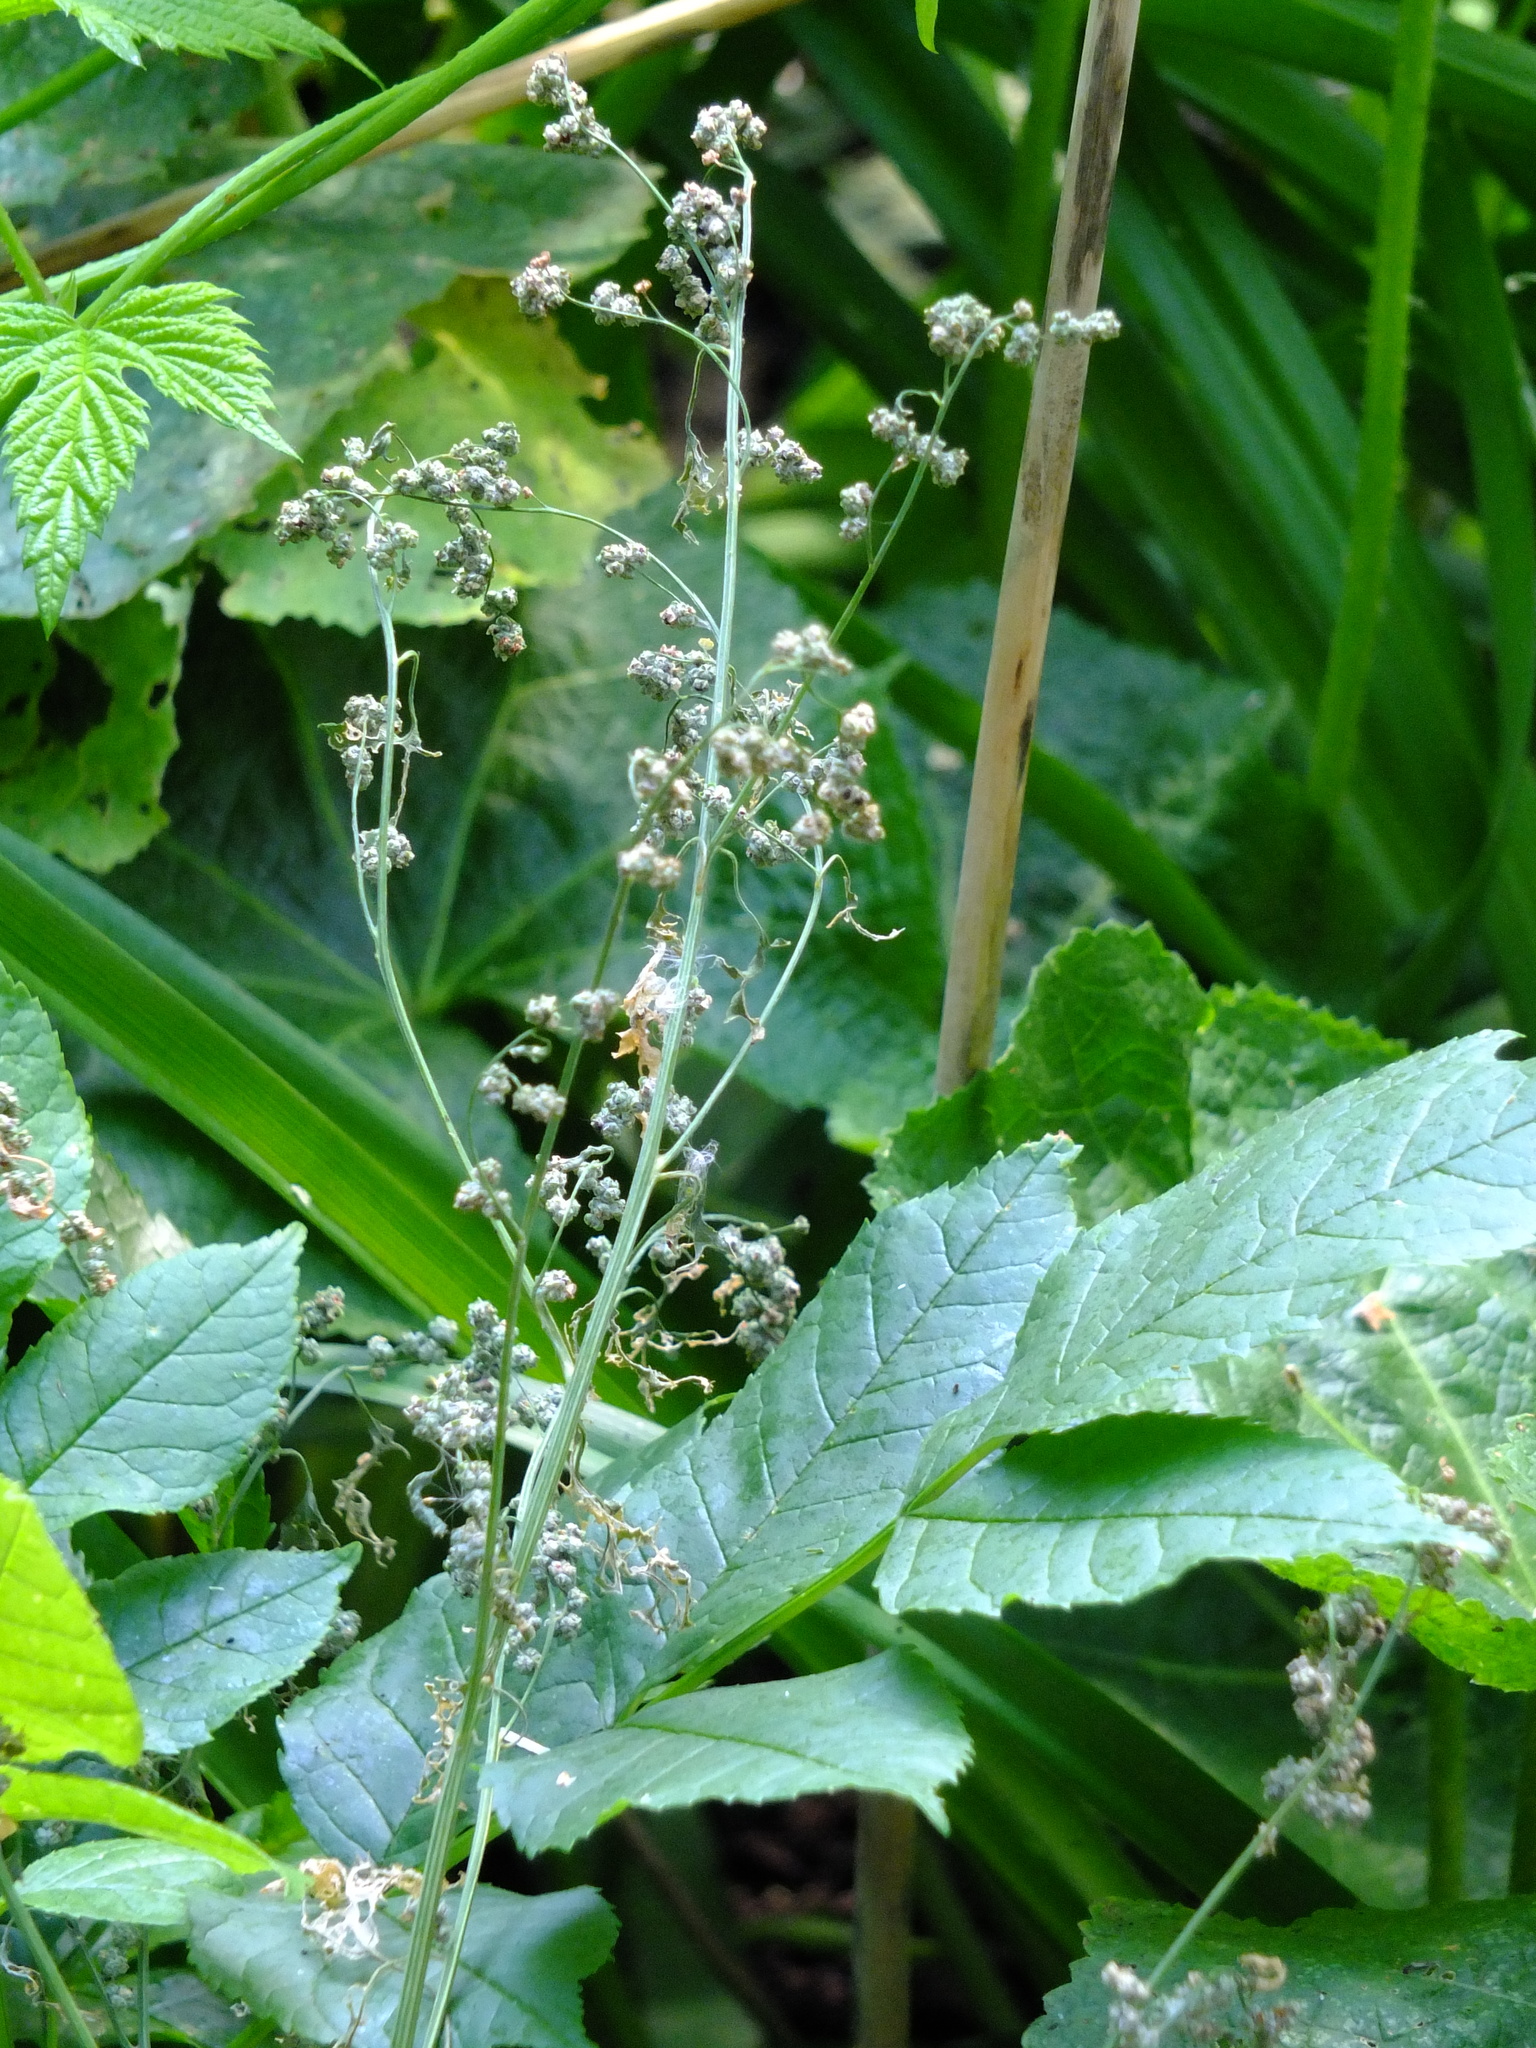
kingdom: Plantae
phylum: Tracheophyta
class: Magnoliopsida
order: Caryophyllales
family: Amaranthaceae
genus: Chenopodium
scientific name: Chenopodium album
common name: Fat-hen
